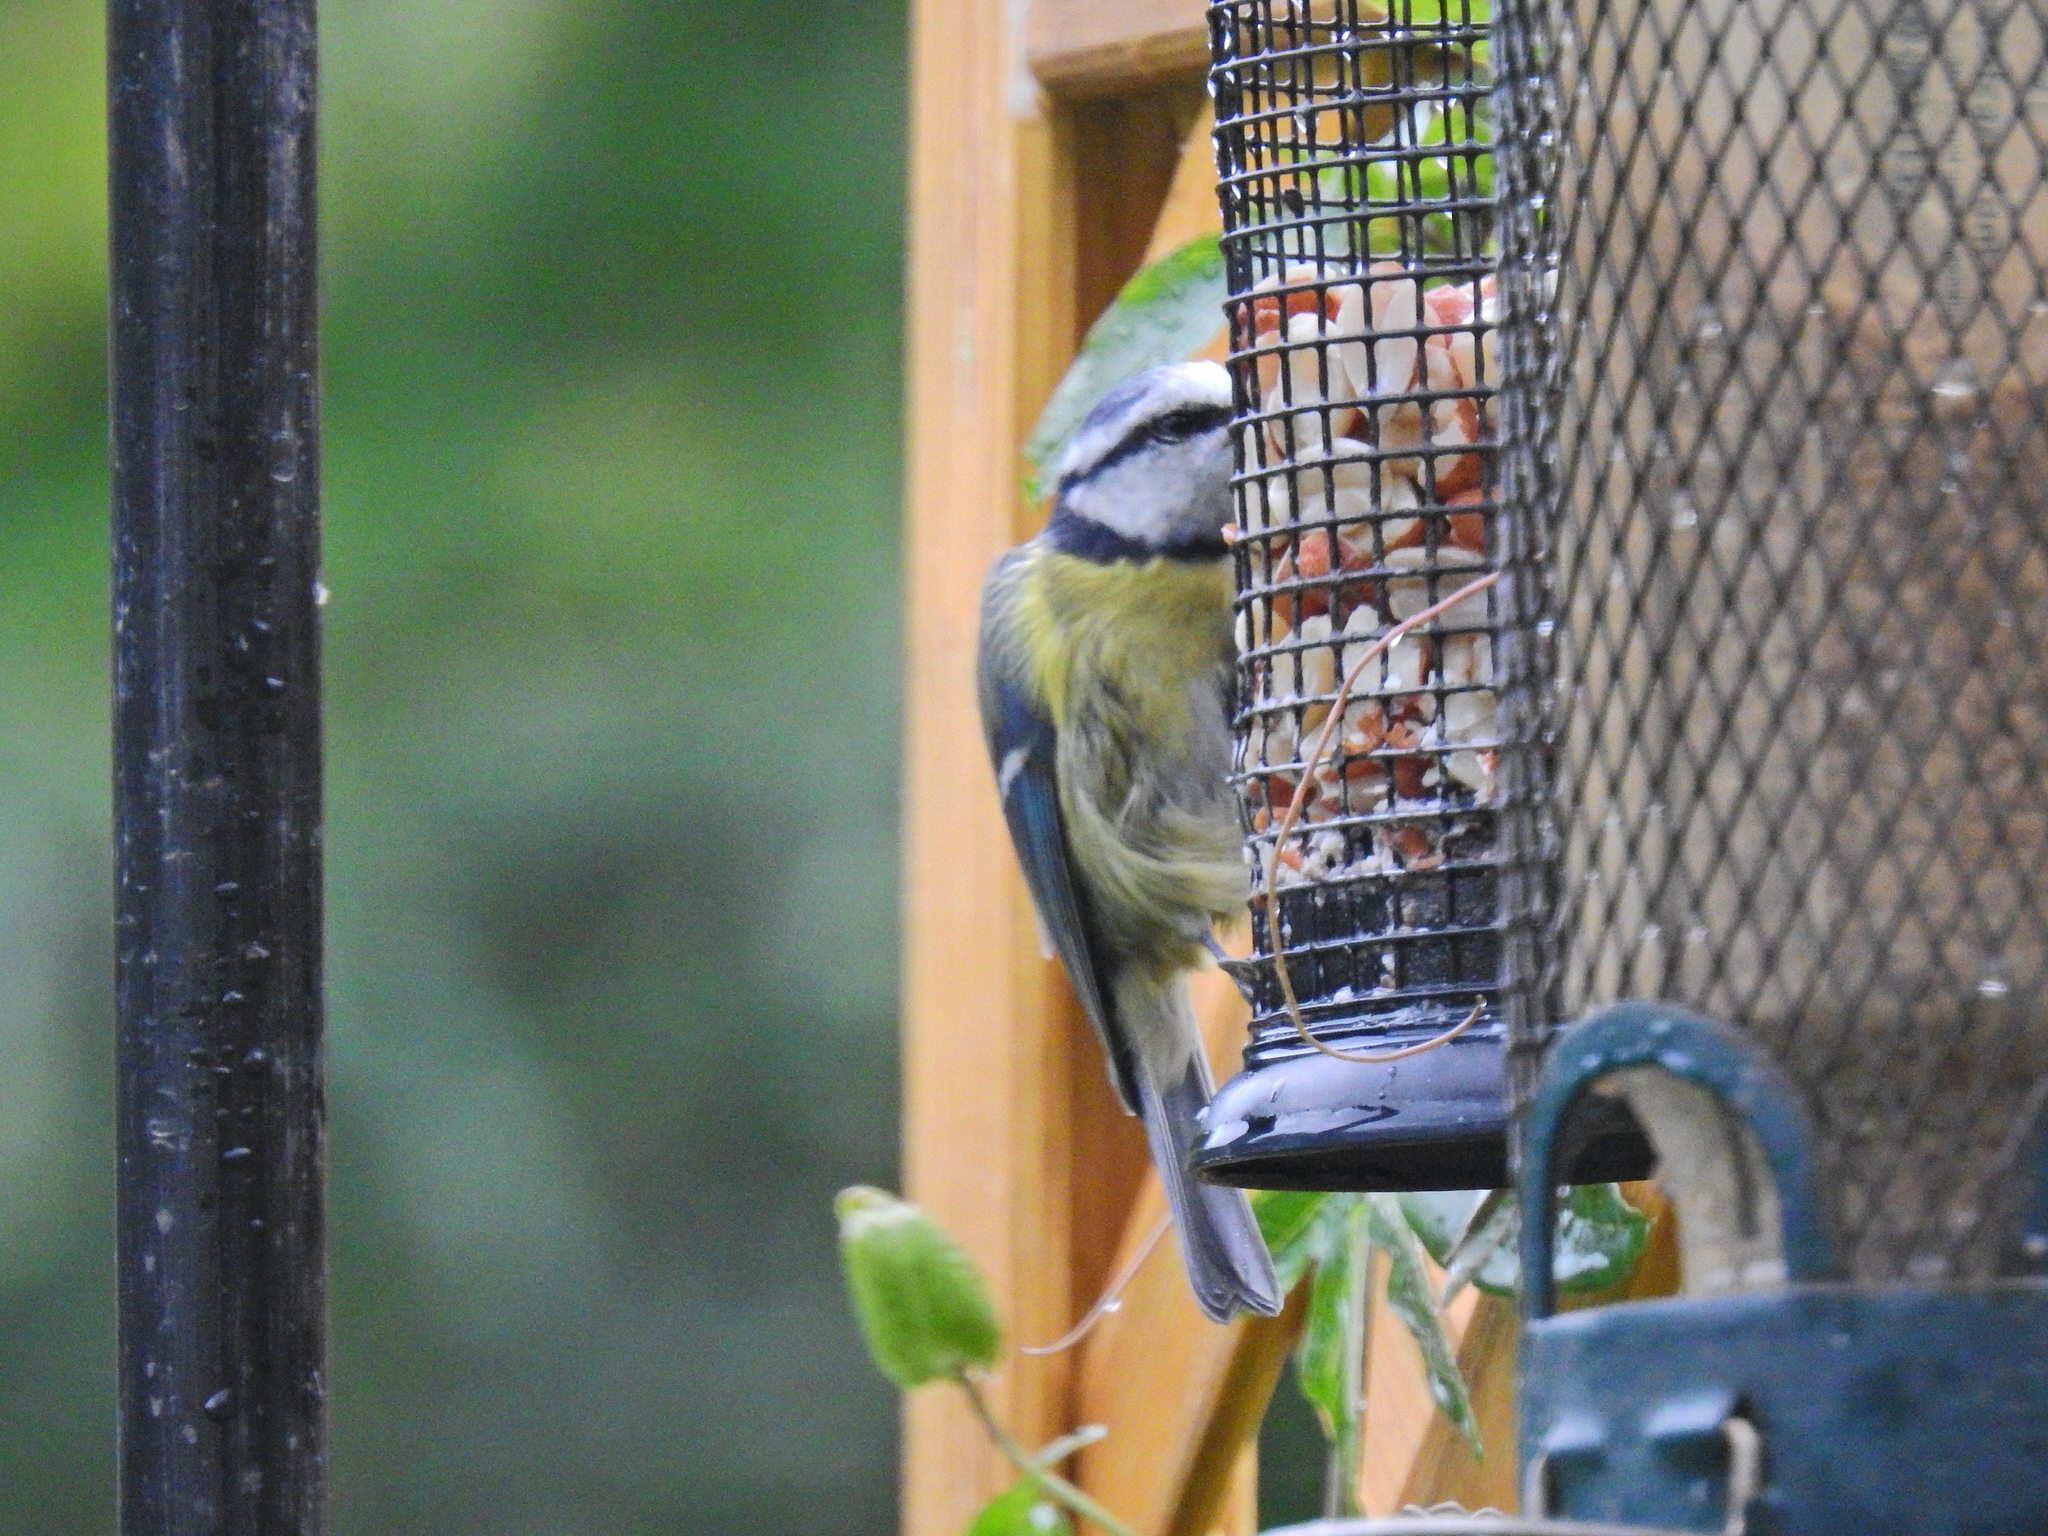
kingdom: Animalia
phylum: Chordata
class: Aves
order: Passeriformes
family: Paridae
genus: Cyanistes
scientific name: Cyanistes caeruleus
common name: Eurasian blue tit
